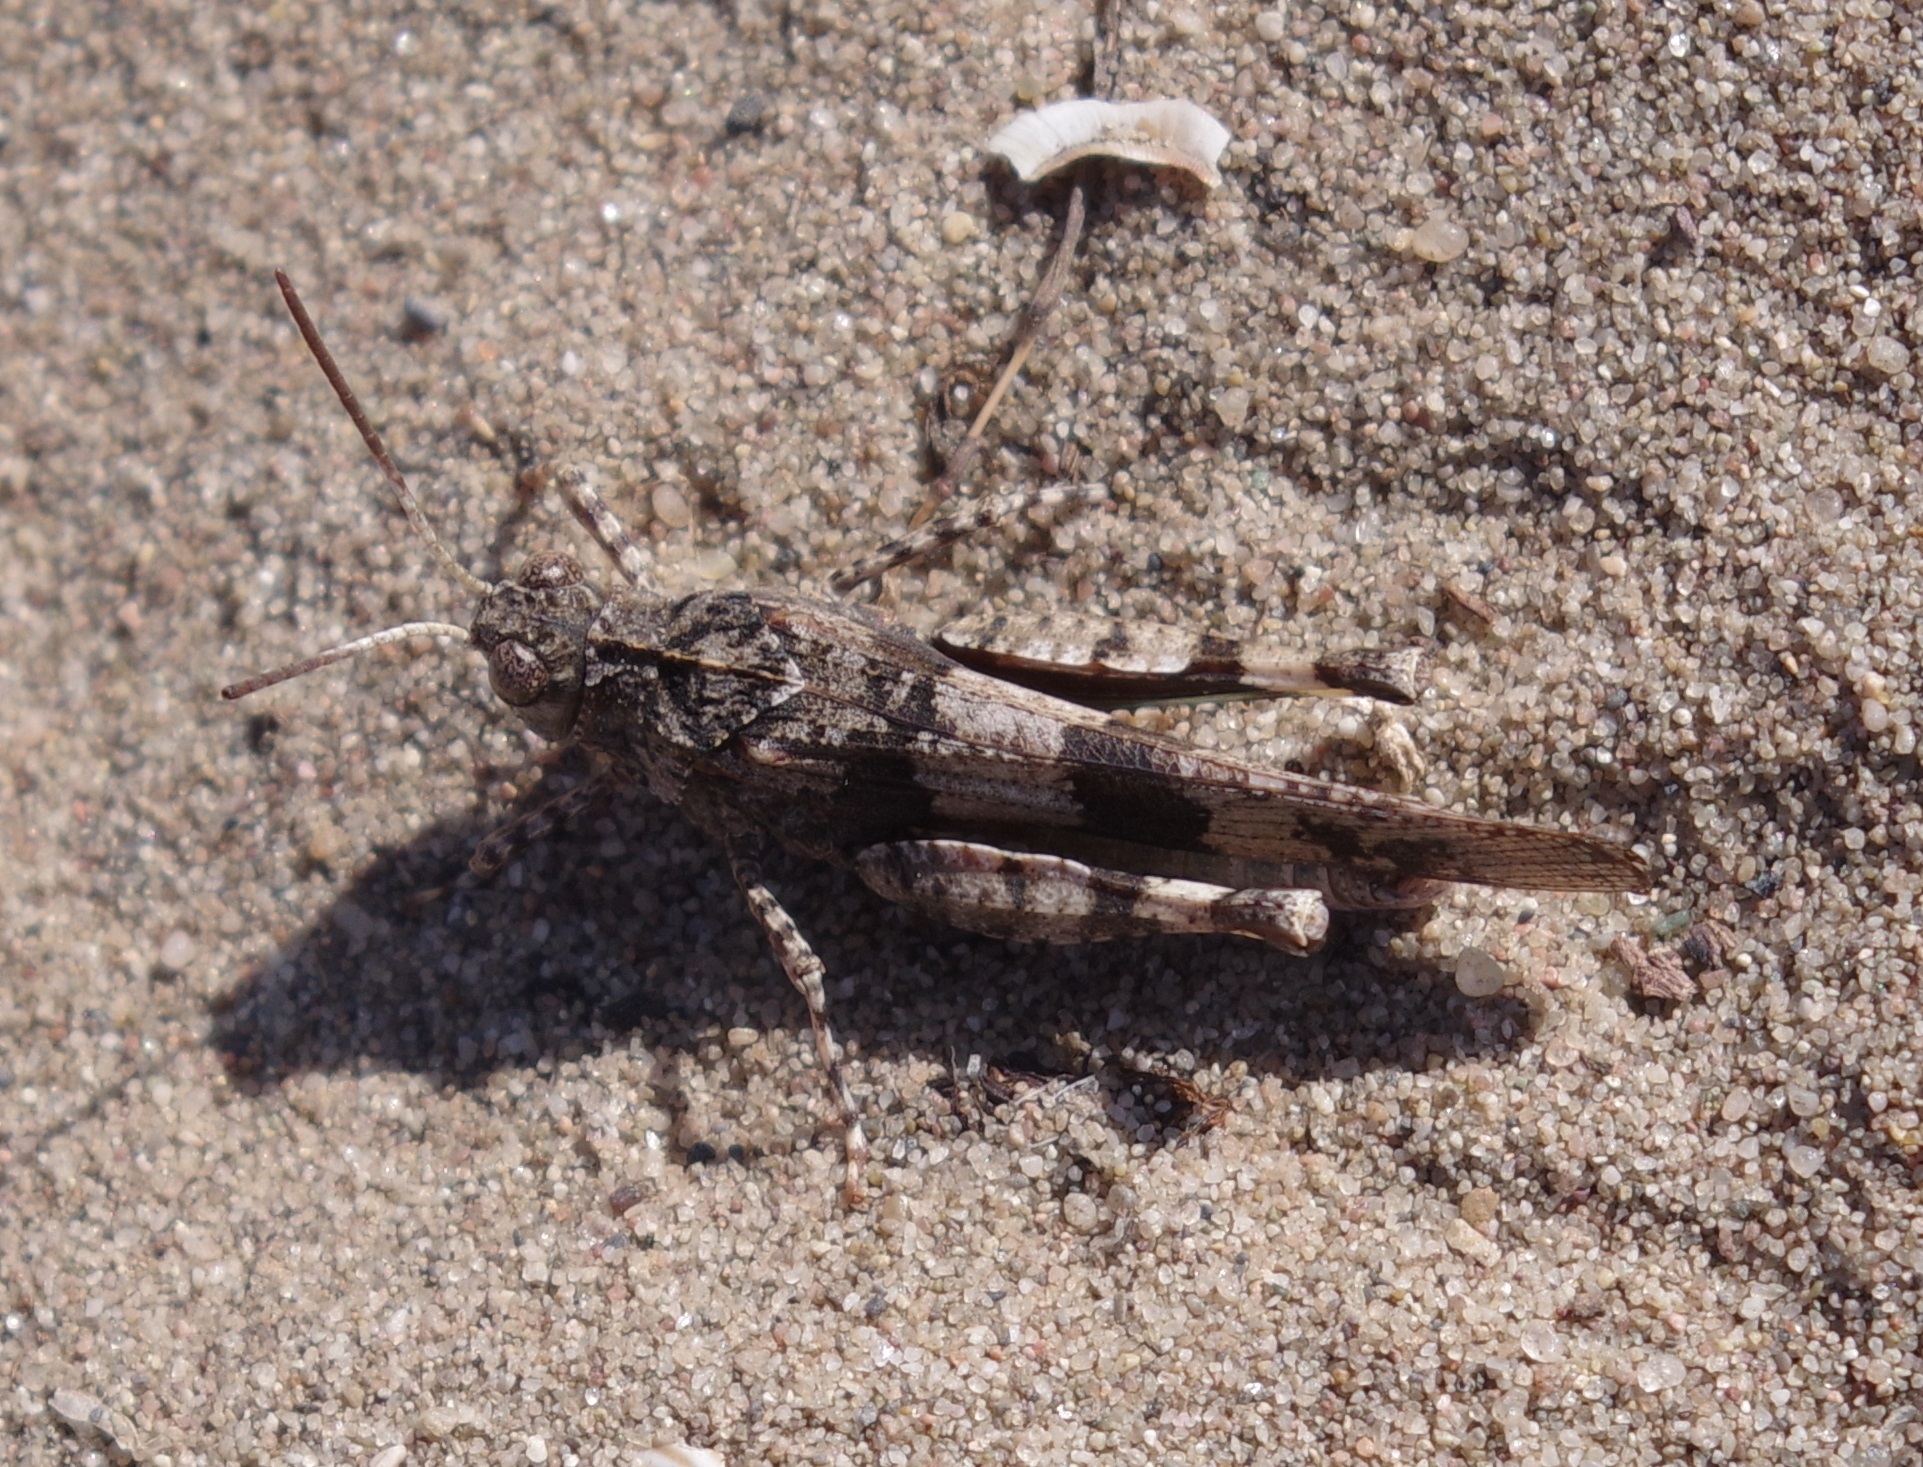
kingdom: Animalia
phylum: Arthropoda
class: Insecta
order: Orthoptera
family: Acrididae
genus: Oedipoda
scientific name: Oedipoda caerulescens
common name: Blue-winged grasshopper
